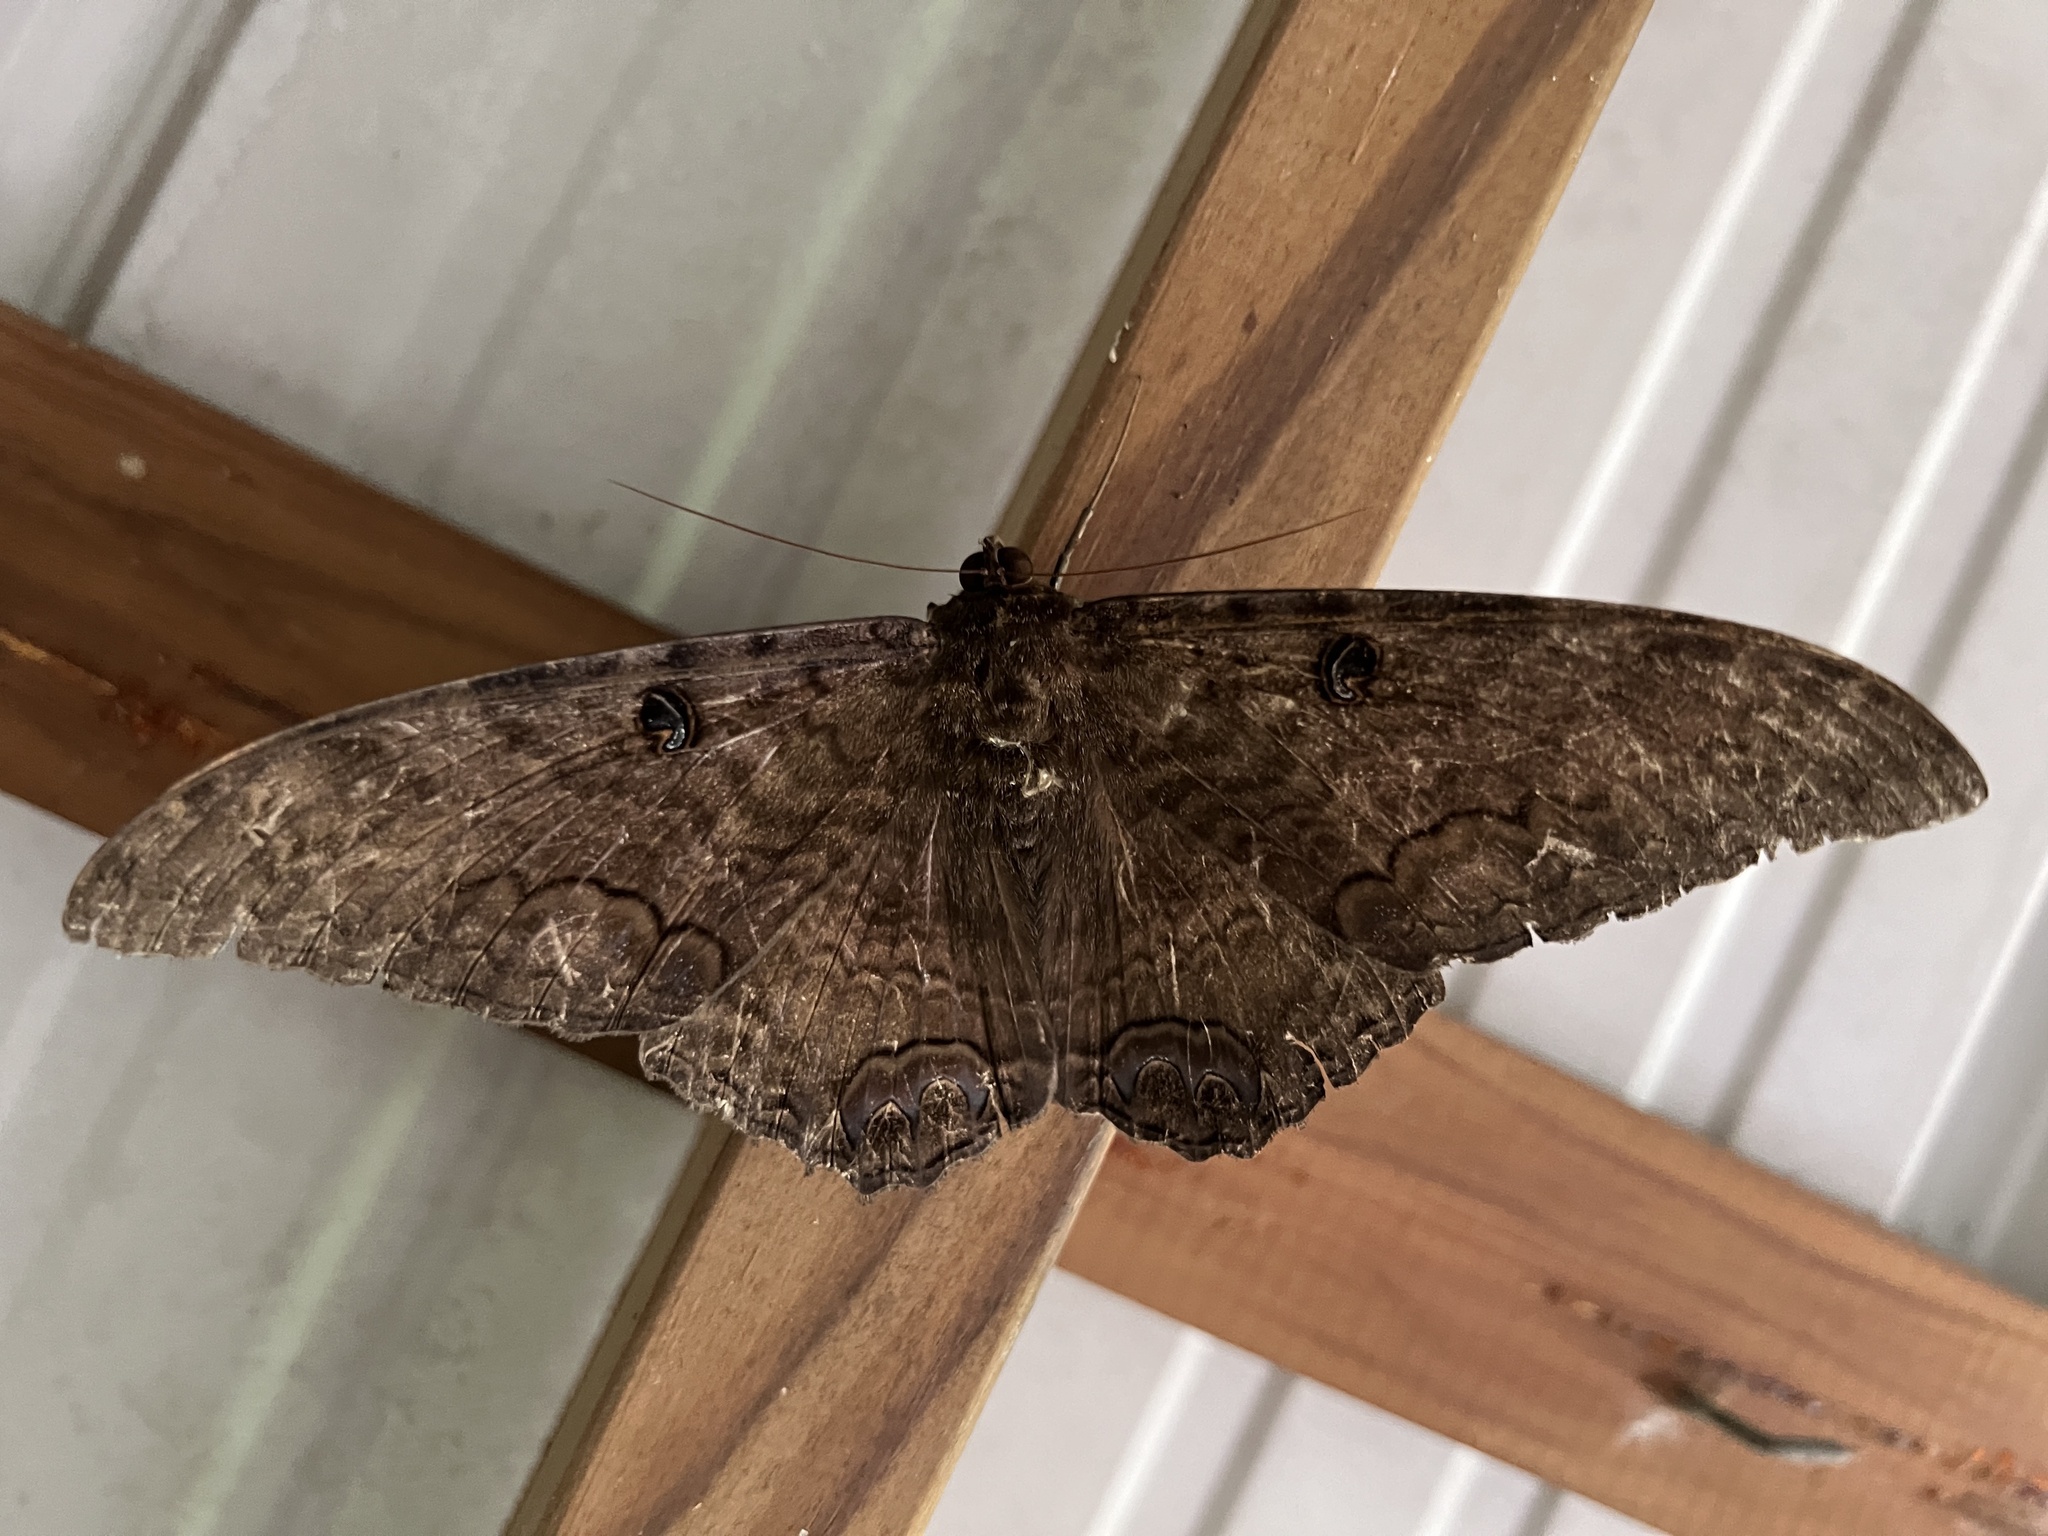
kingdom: Animalia
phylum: Arthropoda
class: Insecta
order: Lepidoptera
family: Erebidae
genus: Ascalapha
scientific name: Ascalapha odorata
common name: Black witch
